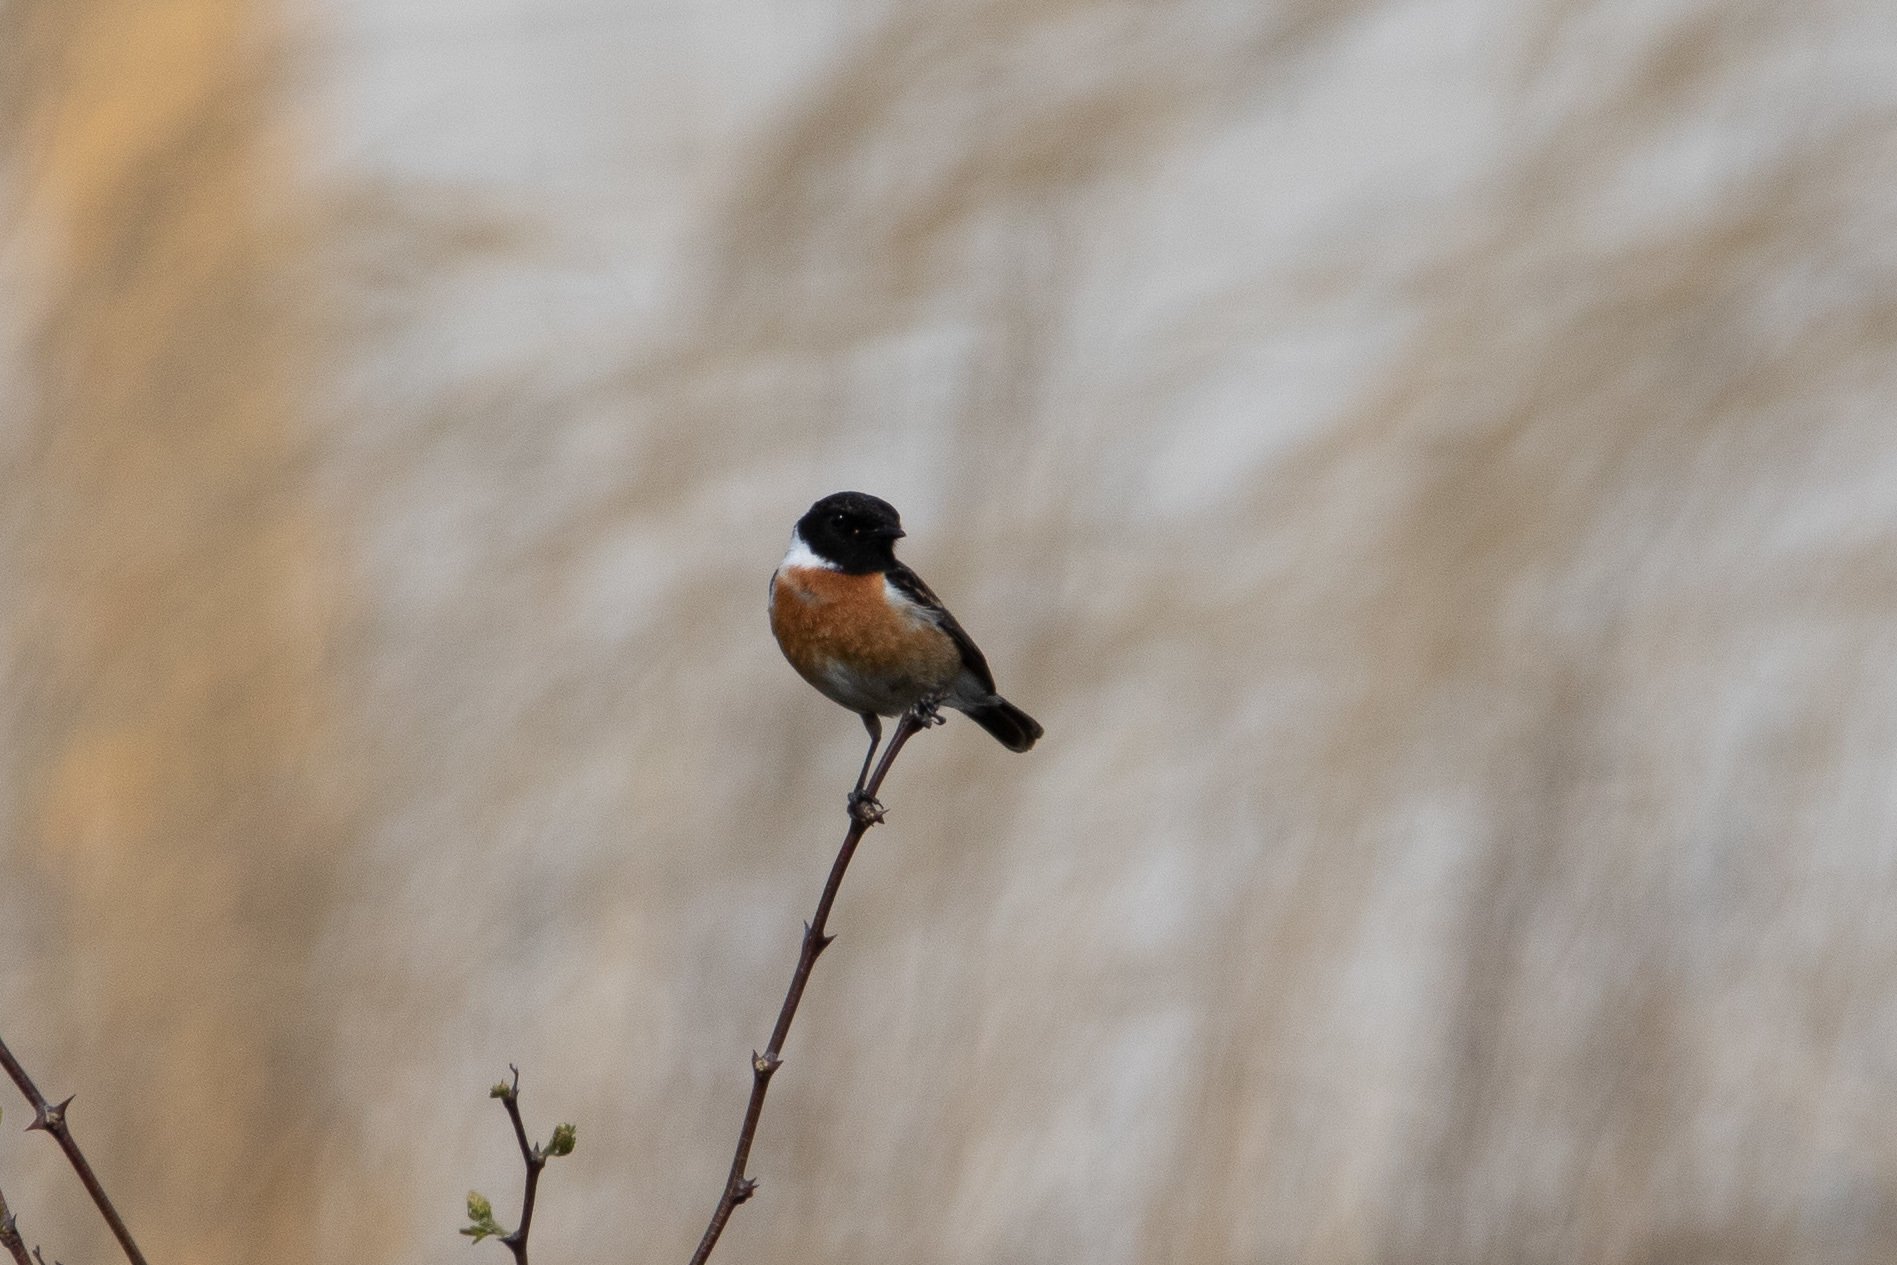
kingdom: Animalia
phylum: Chordata
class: Aves
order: Passeriformes
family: Muscicapidae
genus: Saxicola
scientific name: Saxicola rubicola
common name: European stonechat
